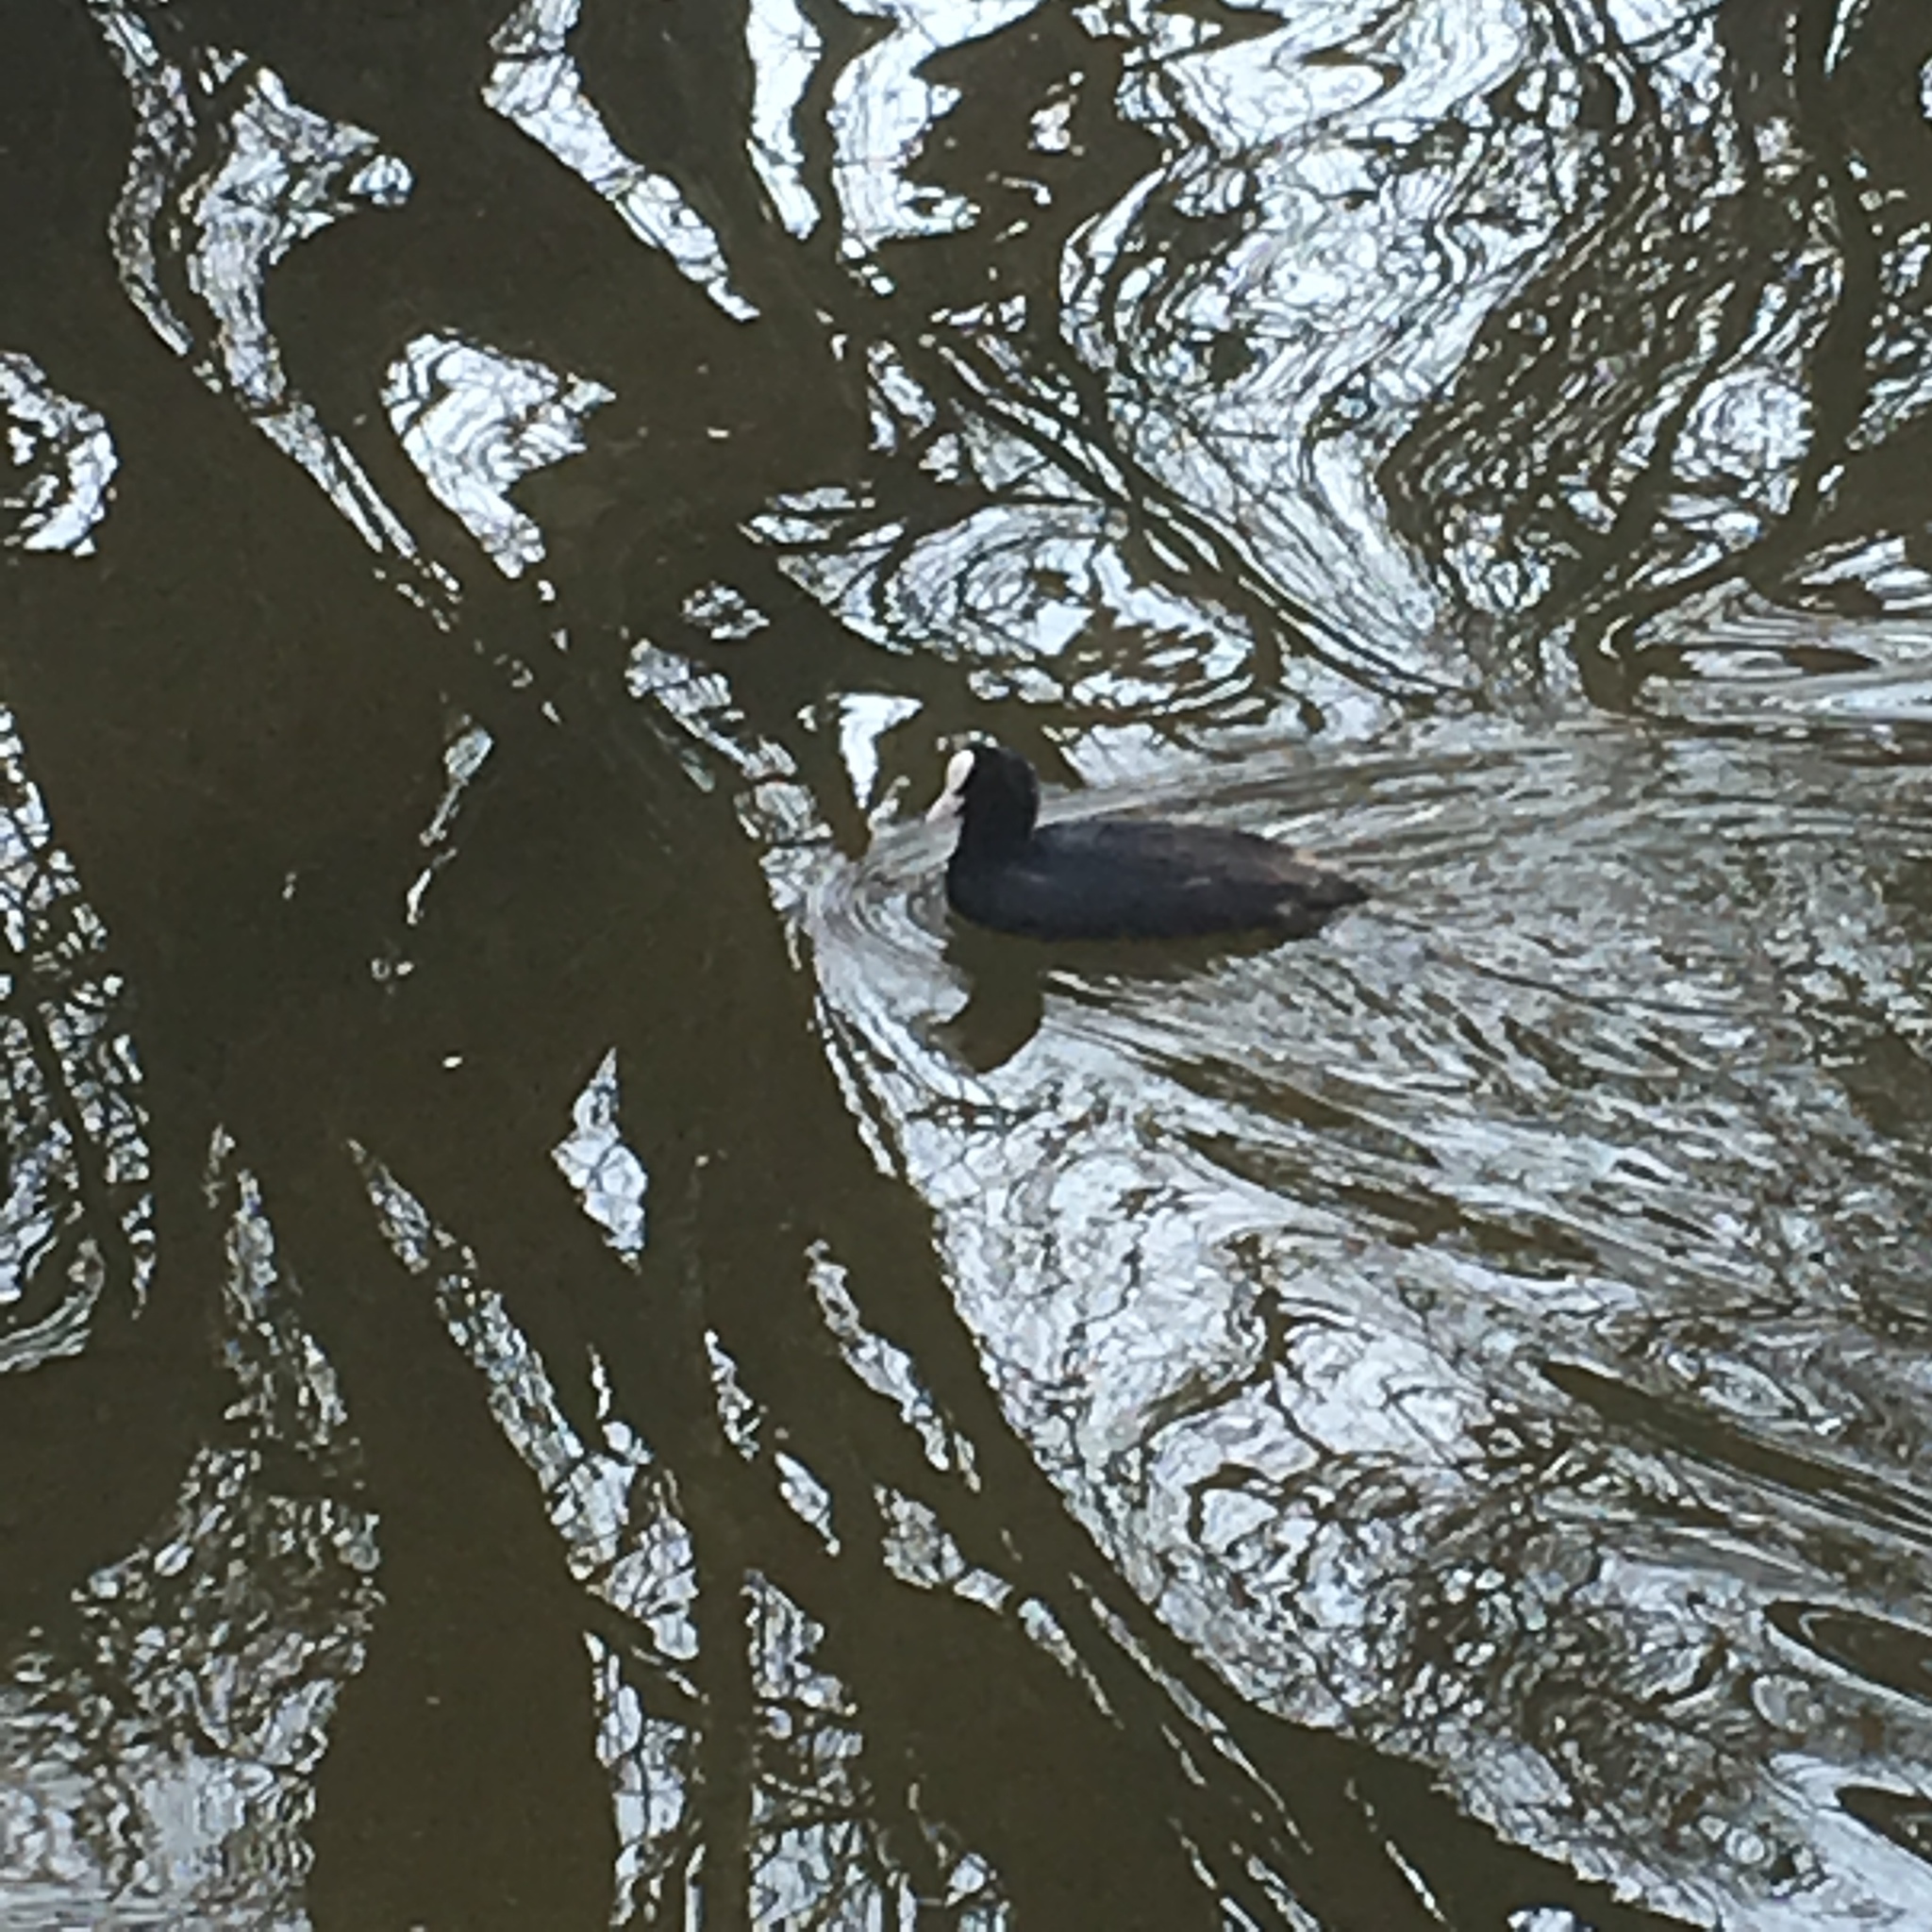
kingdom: Animalia
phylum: Chordata
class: Aves
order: Gruiformes
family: Rallidae
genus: Fulica
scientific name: Fulica atra
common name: Eurasian coot
